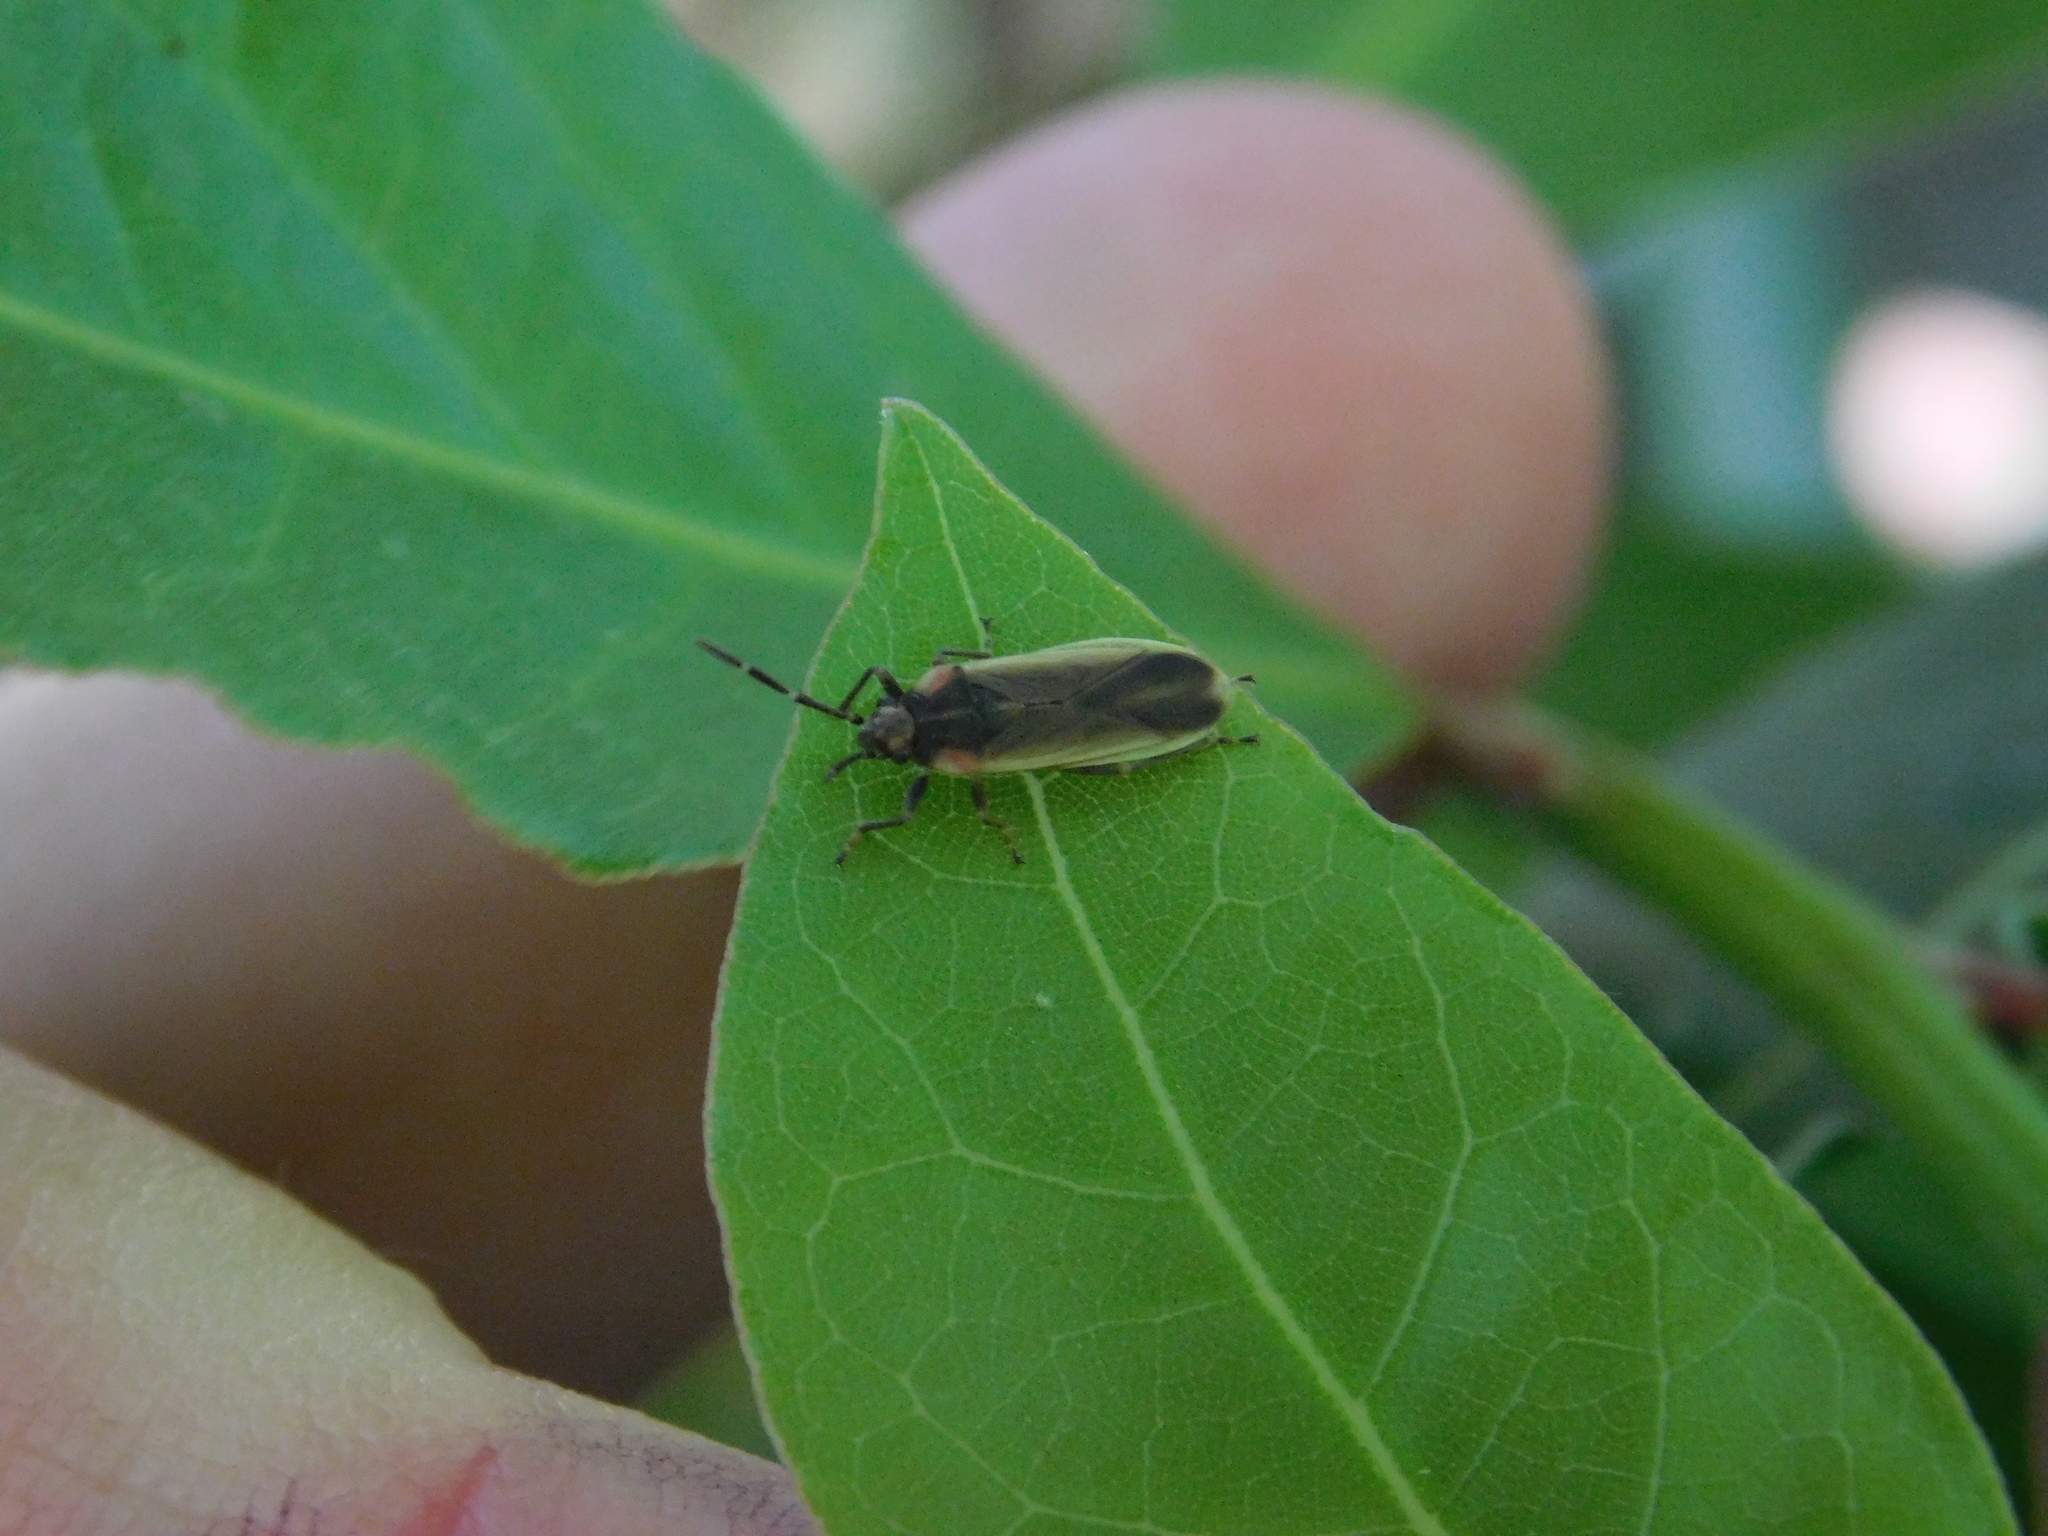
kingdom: Animalia
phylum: Arthropoda
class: Insecta
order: Hemiptera
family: Lygaeidae
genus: Acroleucus
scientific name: Acroleucus coxalis
